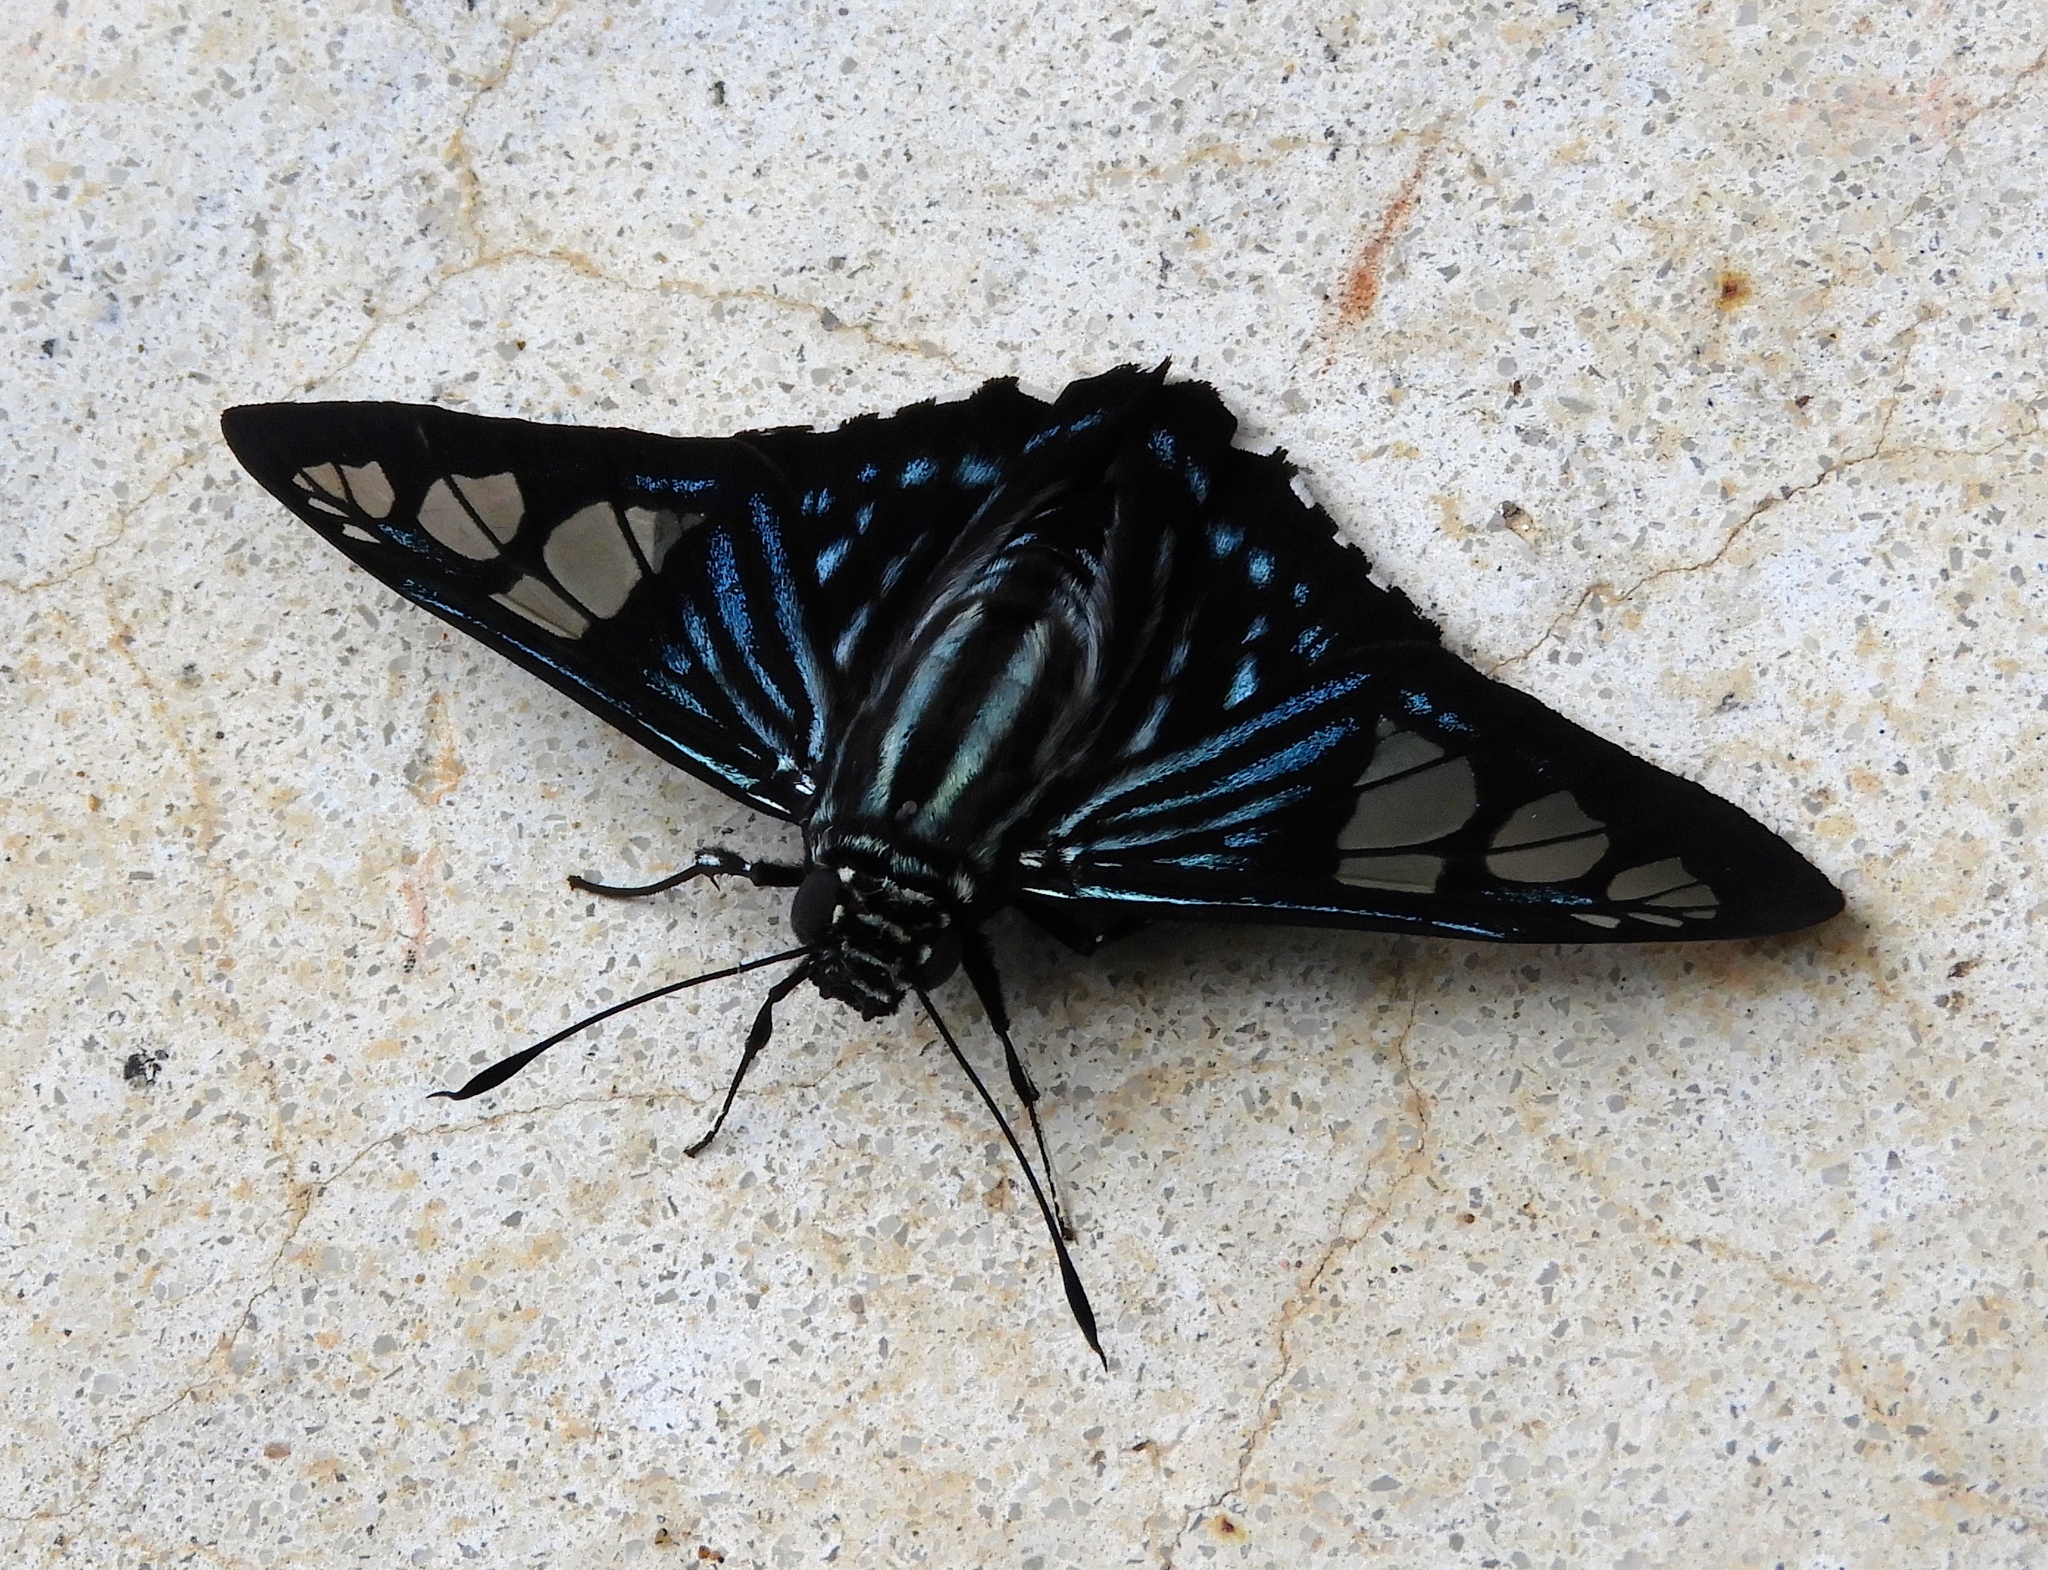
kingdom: Animalia
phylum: Arthropoda
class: Insecta
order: Lepidoptera
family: Hesperiidae
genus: Phocides
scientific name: Phocides pigmalion
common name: Mangrove skipper
